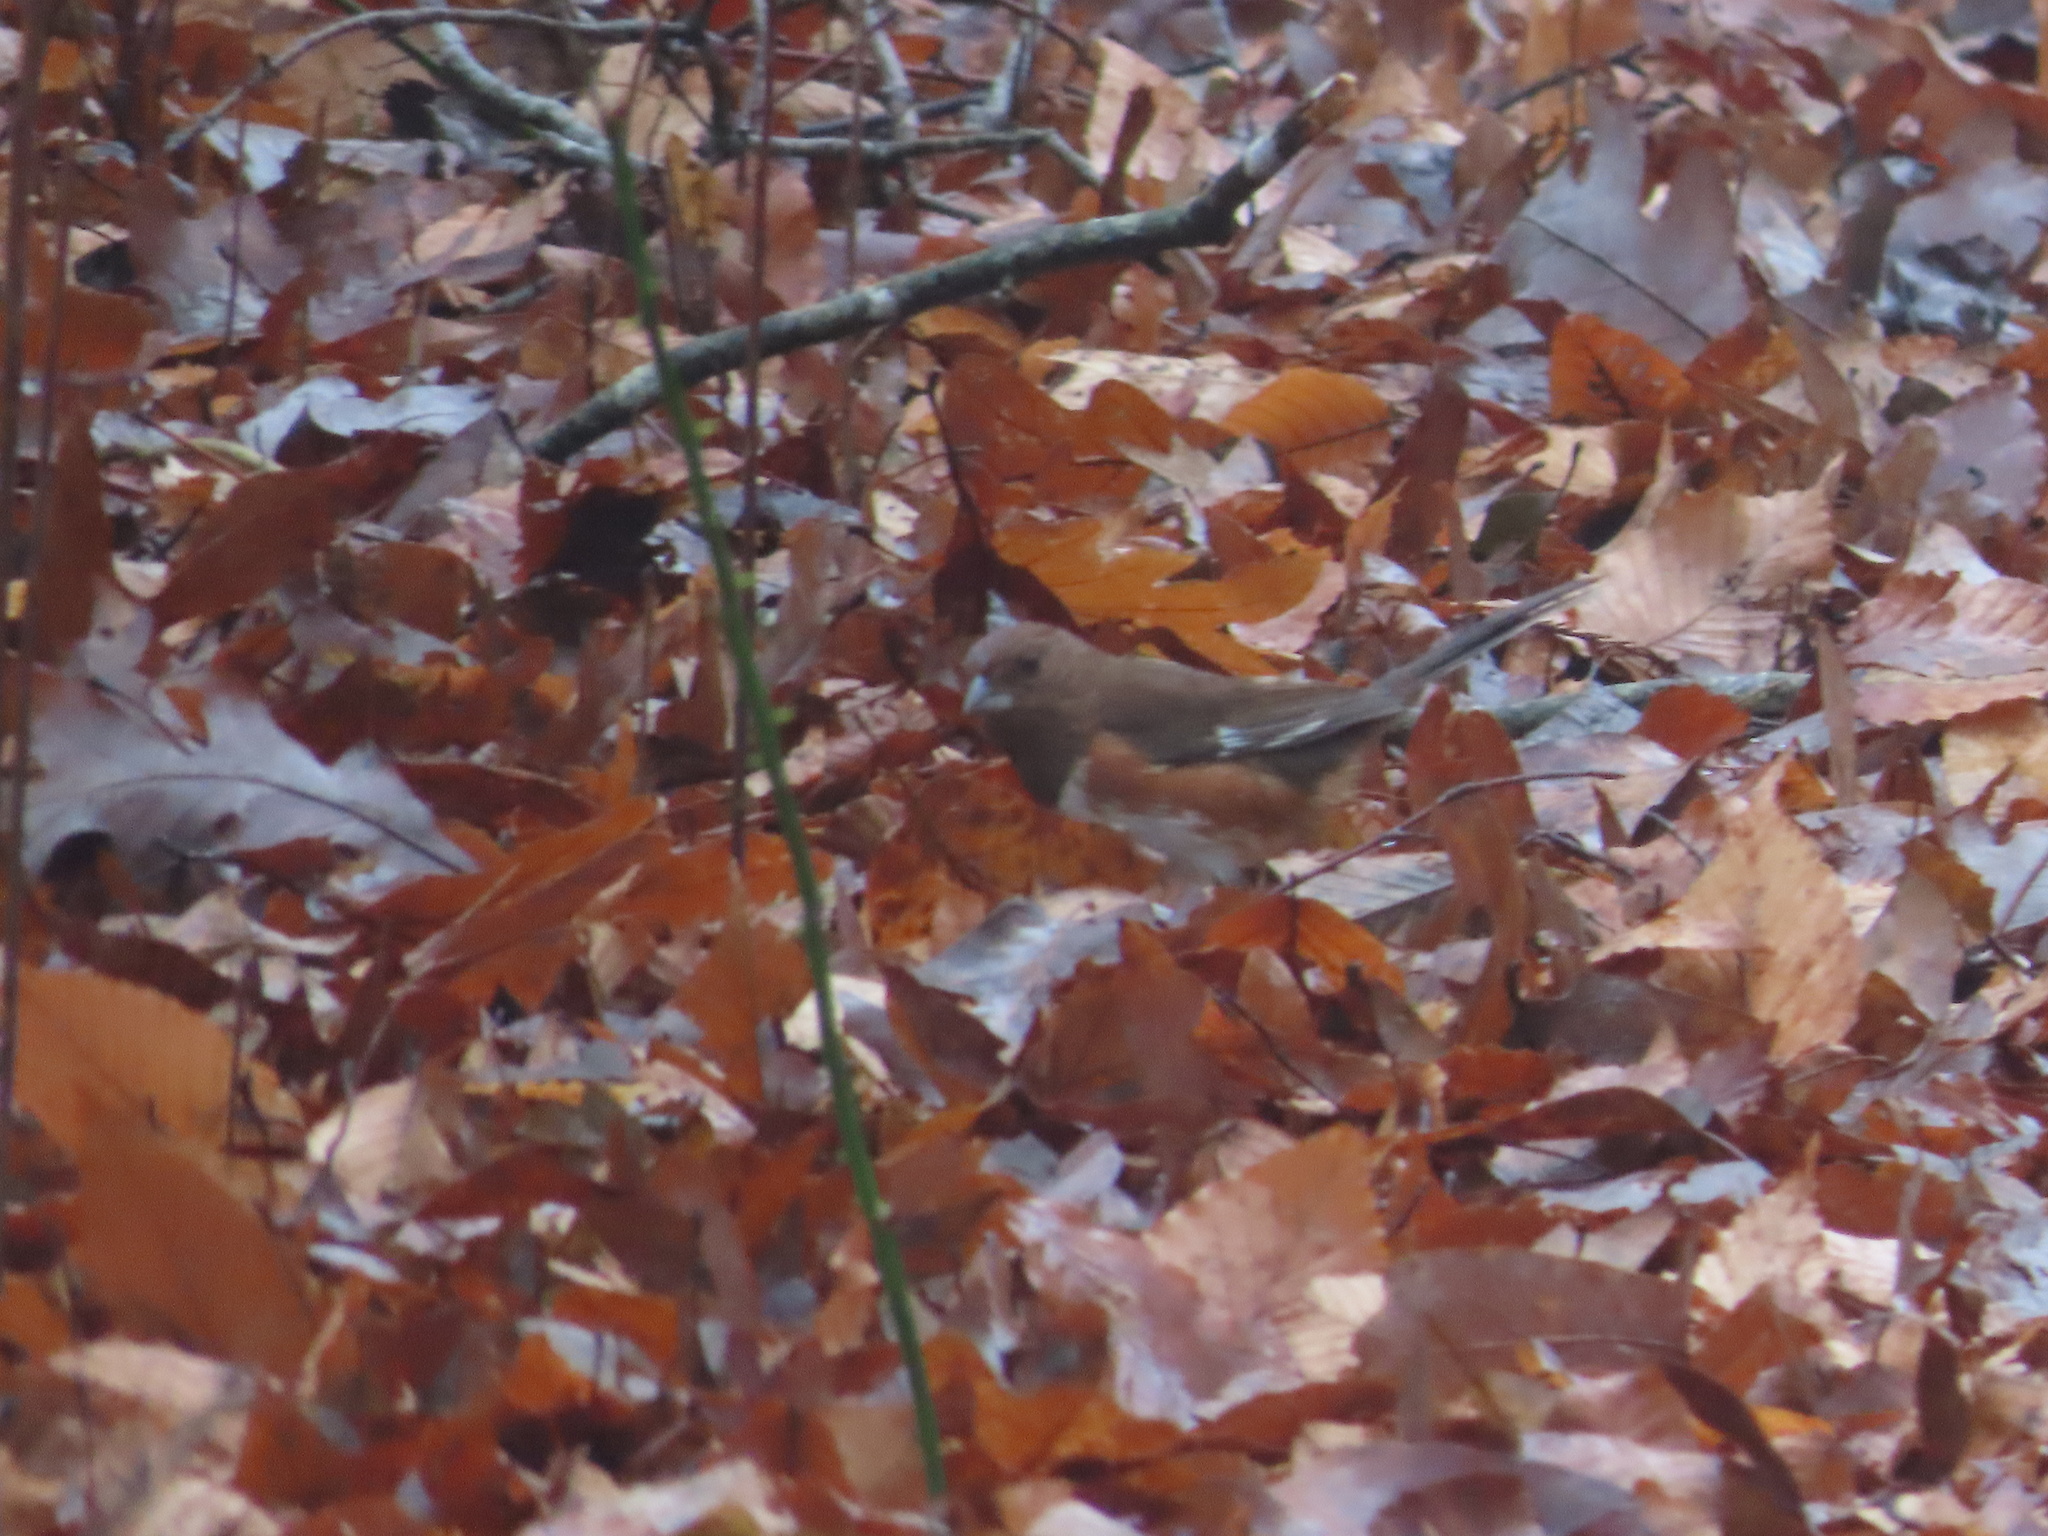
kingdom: Animalia
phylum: Chordata
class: Aves
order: Passeriformes
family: Passerellidae
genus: Pipilo
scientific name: Pipilo erythrophthalmus
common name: Eastern towhee
